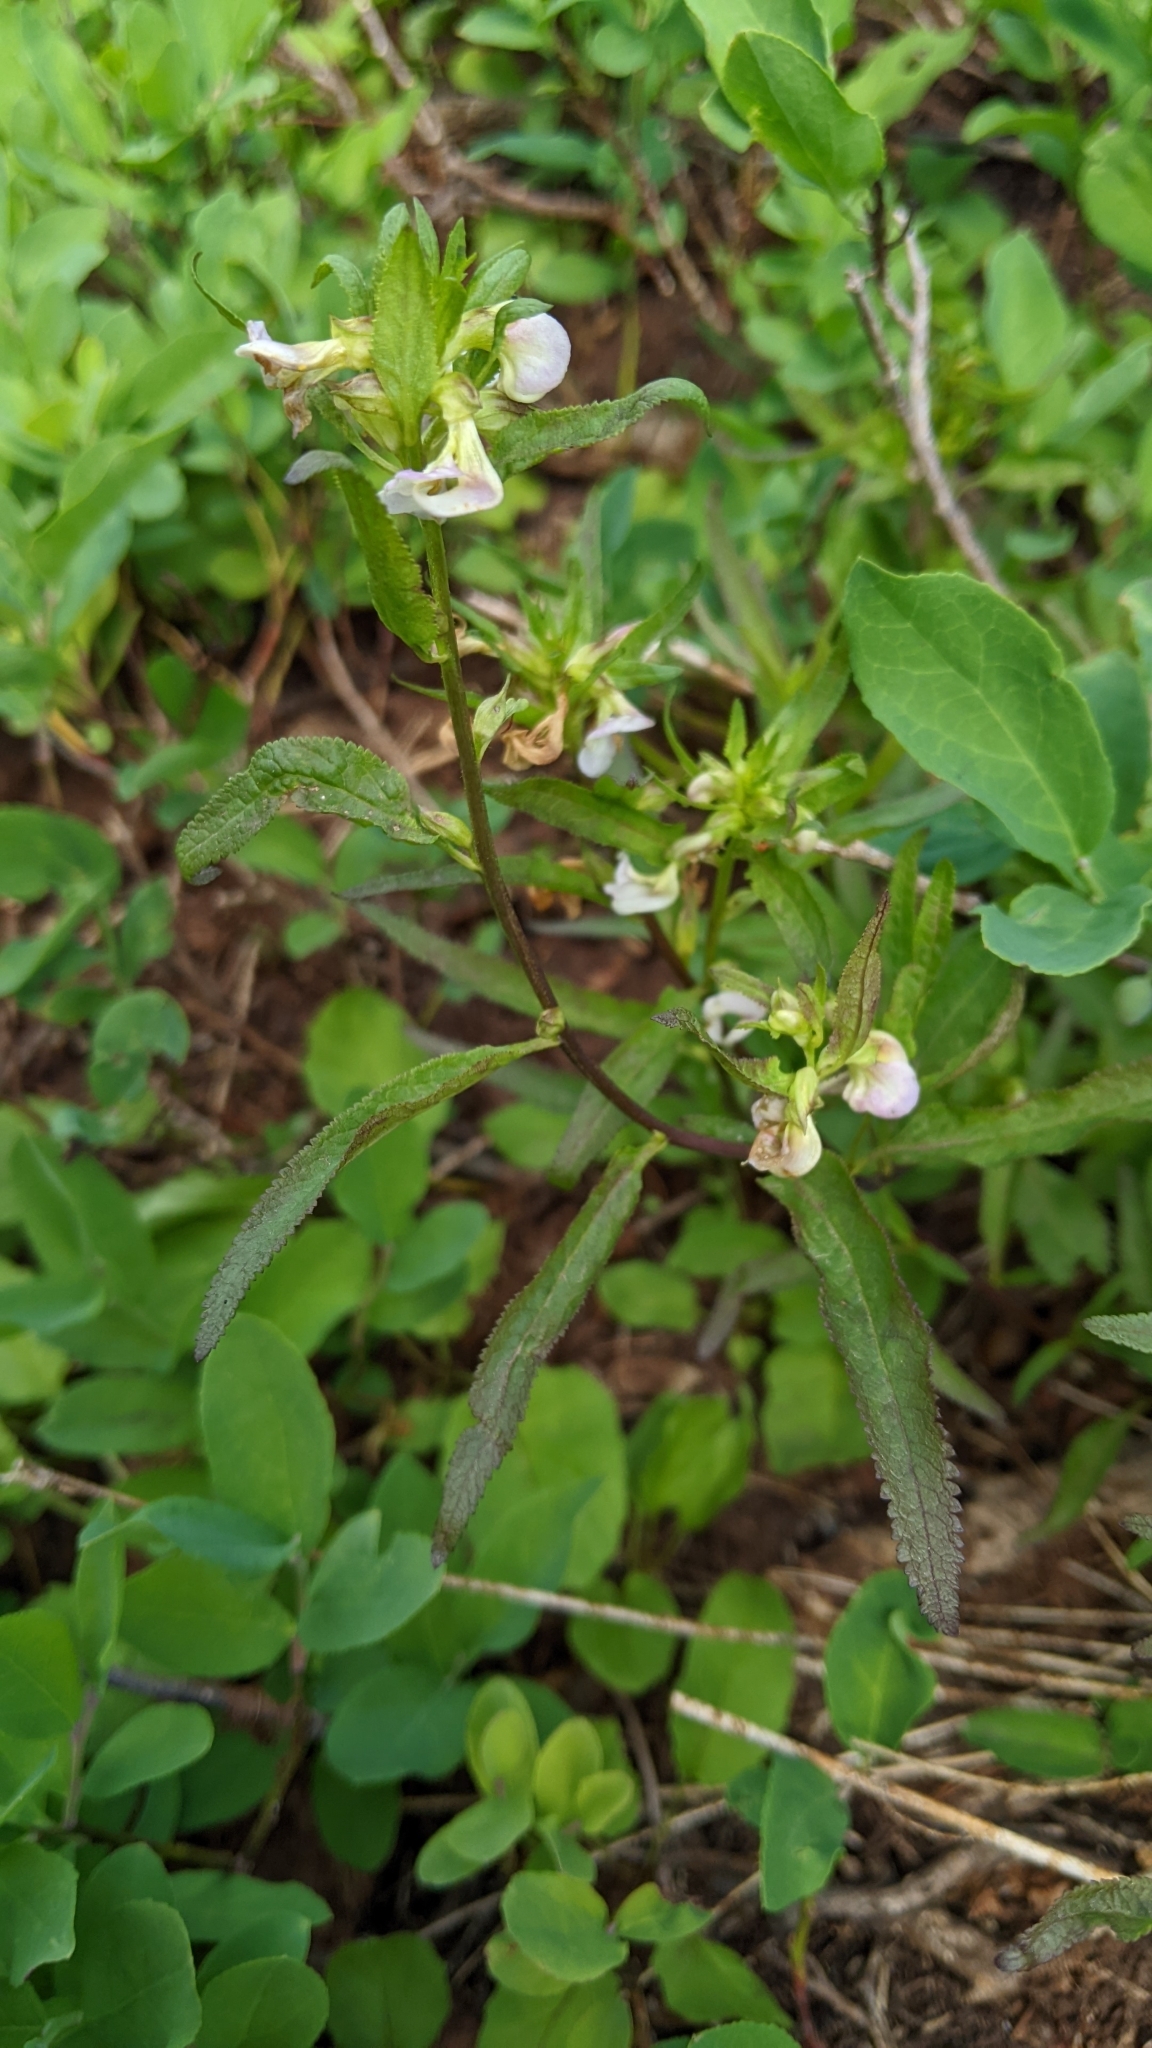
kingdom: Plantae
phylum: Tracheophyta
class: Magnoliopsida
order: Lamiales
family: Orobanchaceae
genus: Pedicularis
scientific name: Pedicularis racemosa
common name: Leafy lousewort
